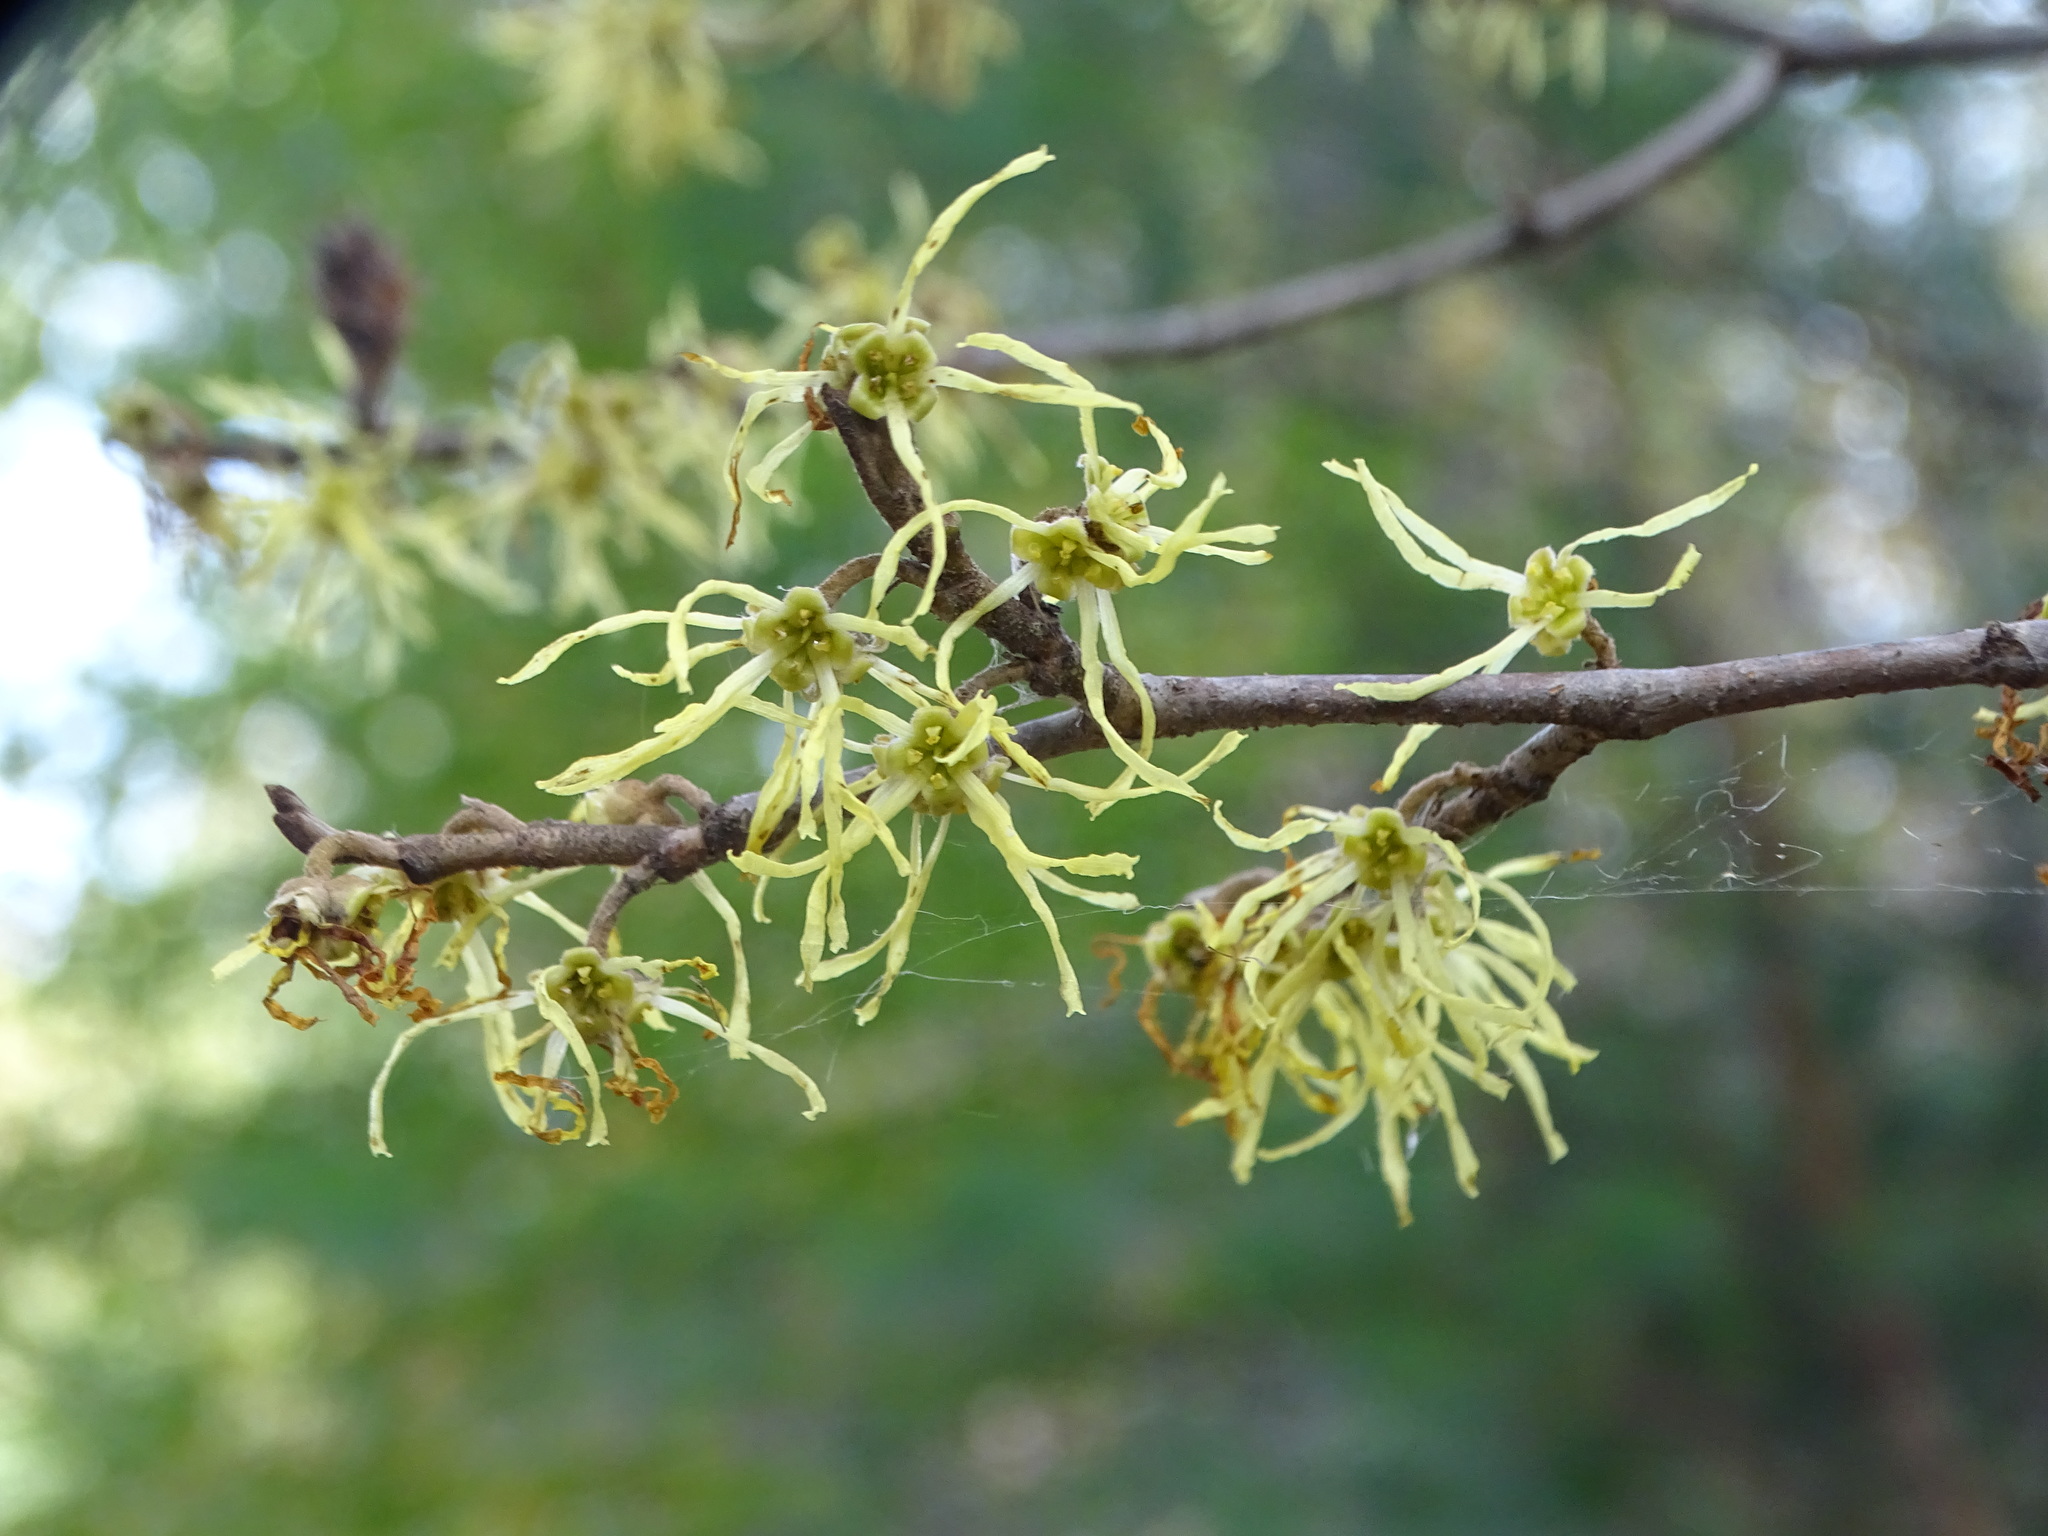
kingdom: Plantae
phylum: Tracheophyta
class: Magnoliopsida
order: Saxifragales
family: Hamamelidaceae
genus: Hamamelis
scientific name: Hamamelis virginiana
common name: Witch-hazel
